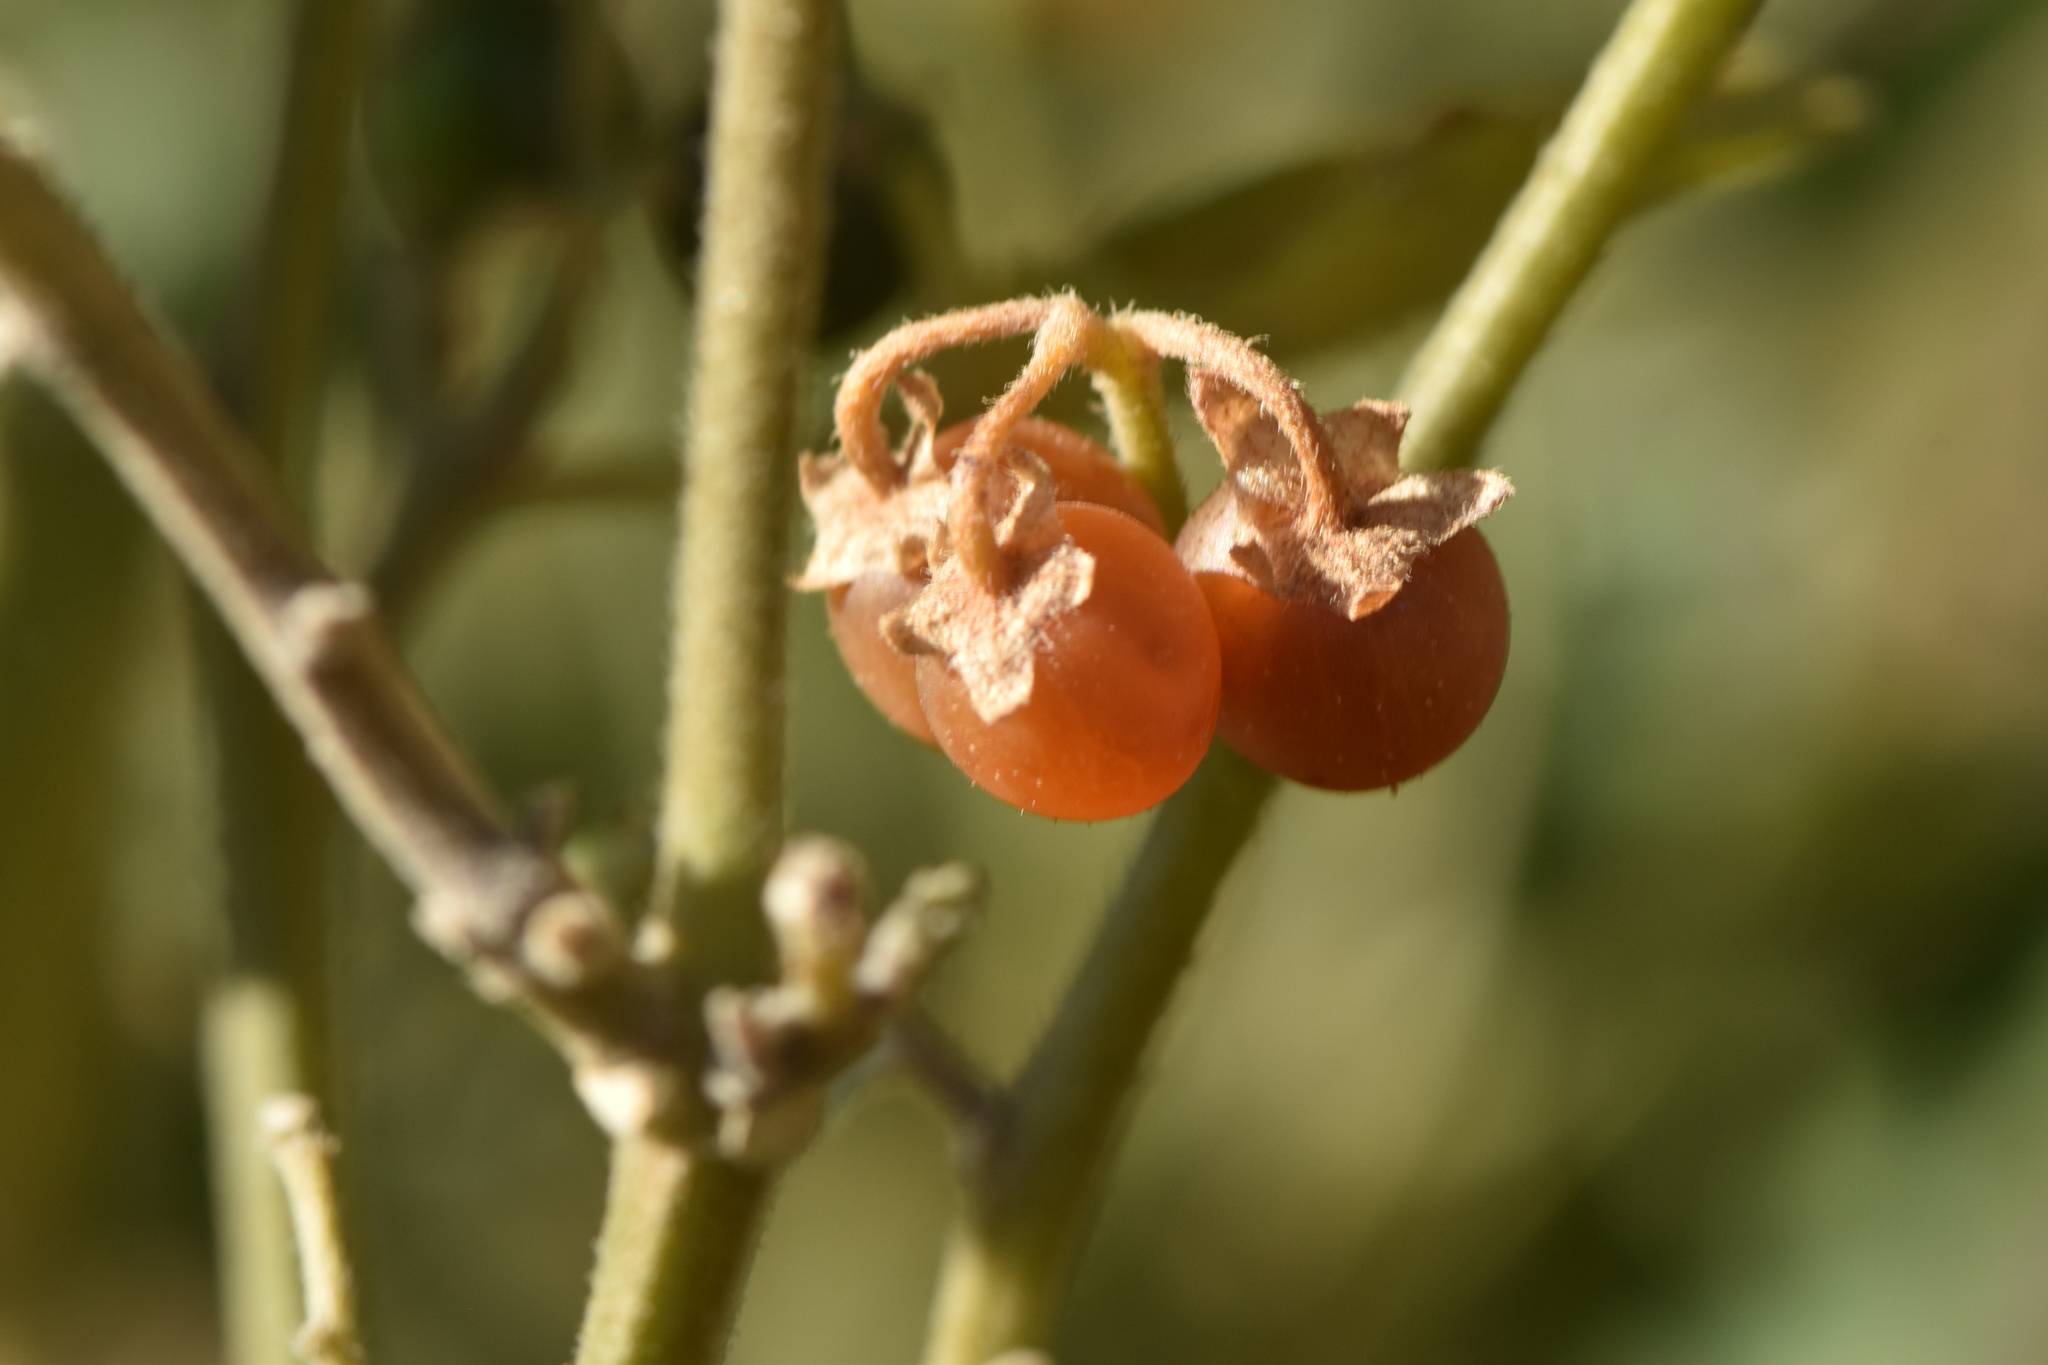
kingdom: Plantae
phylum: Tracheophyta
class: Magnoliopsida
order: Solanales
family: Solanaceae
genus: Solanum
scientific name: Solanum villosum
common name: Red nightshade
